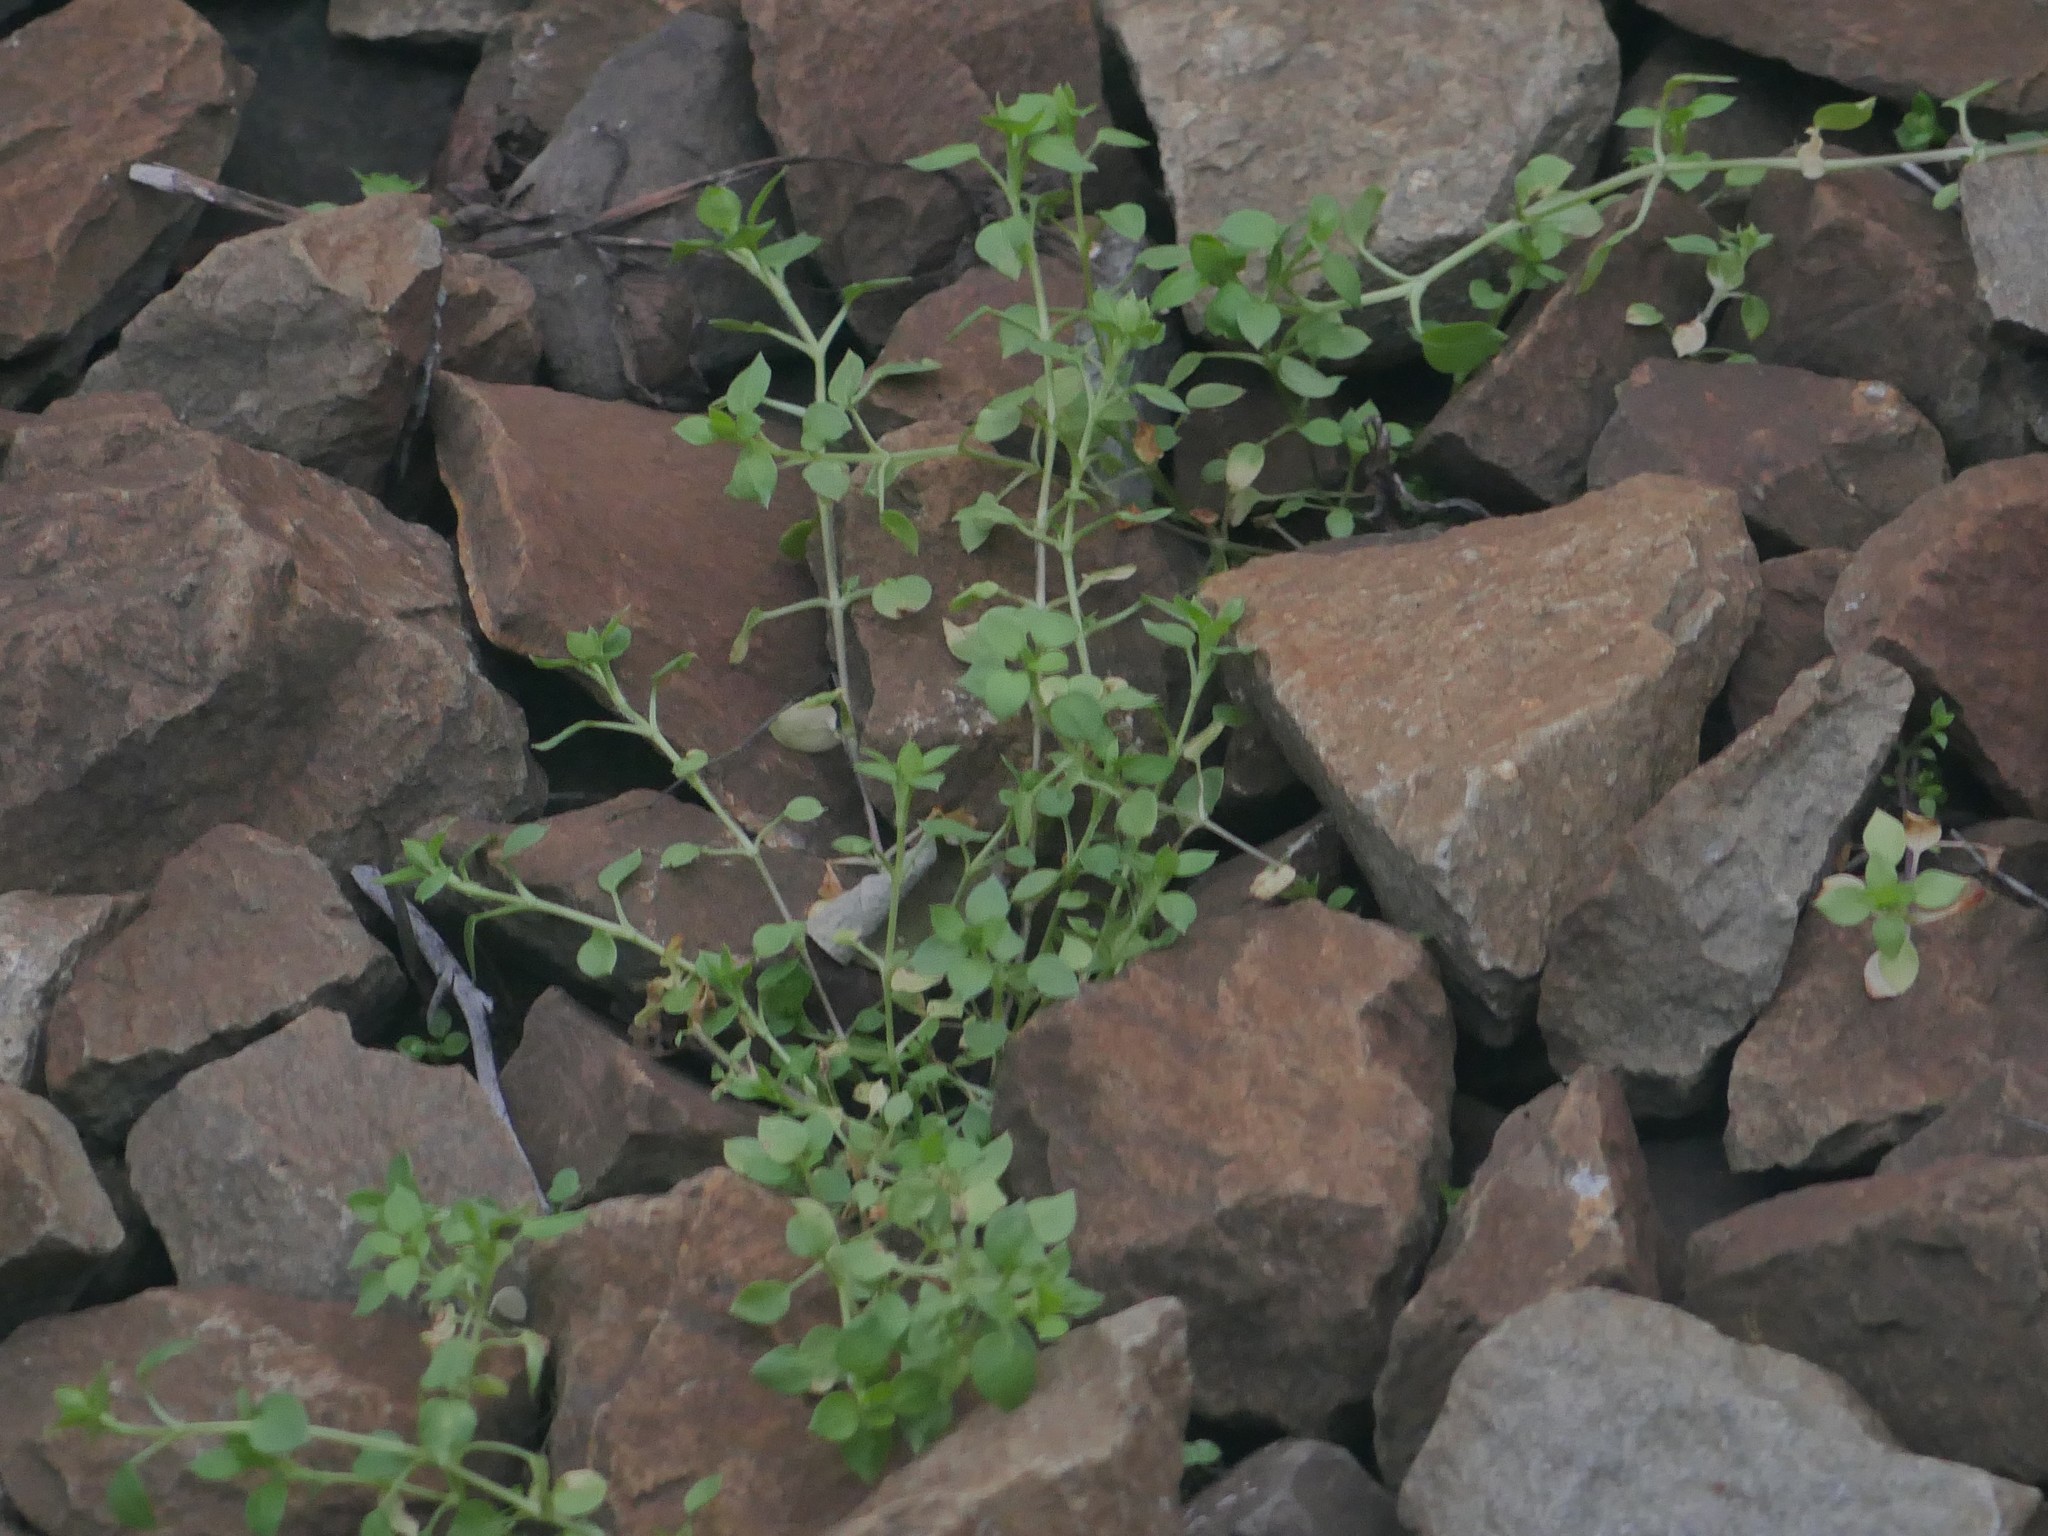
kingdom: Plantae
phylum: Tracheophyta
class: Magnoliopsida
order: Caryophyllales
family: Caryophyllaceae
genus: Stellaria
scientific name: Stellaria media
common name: Common chickweed
